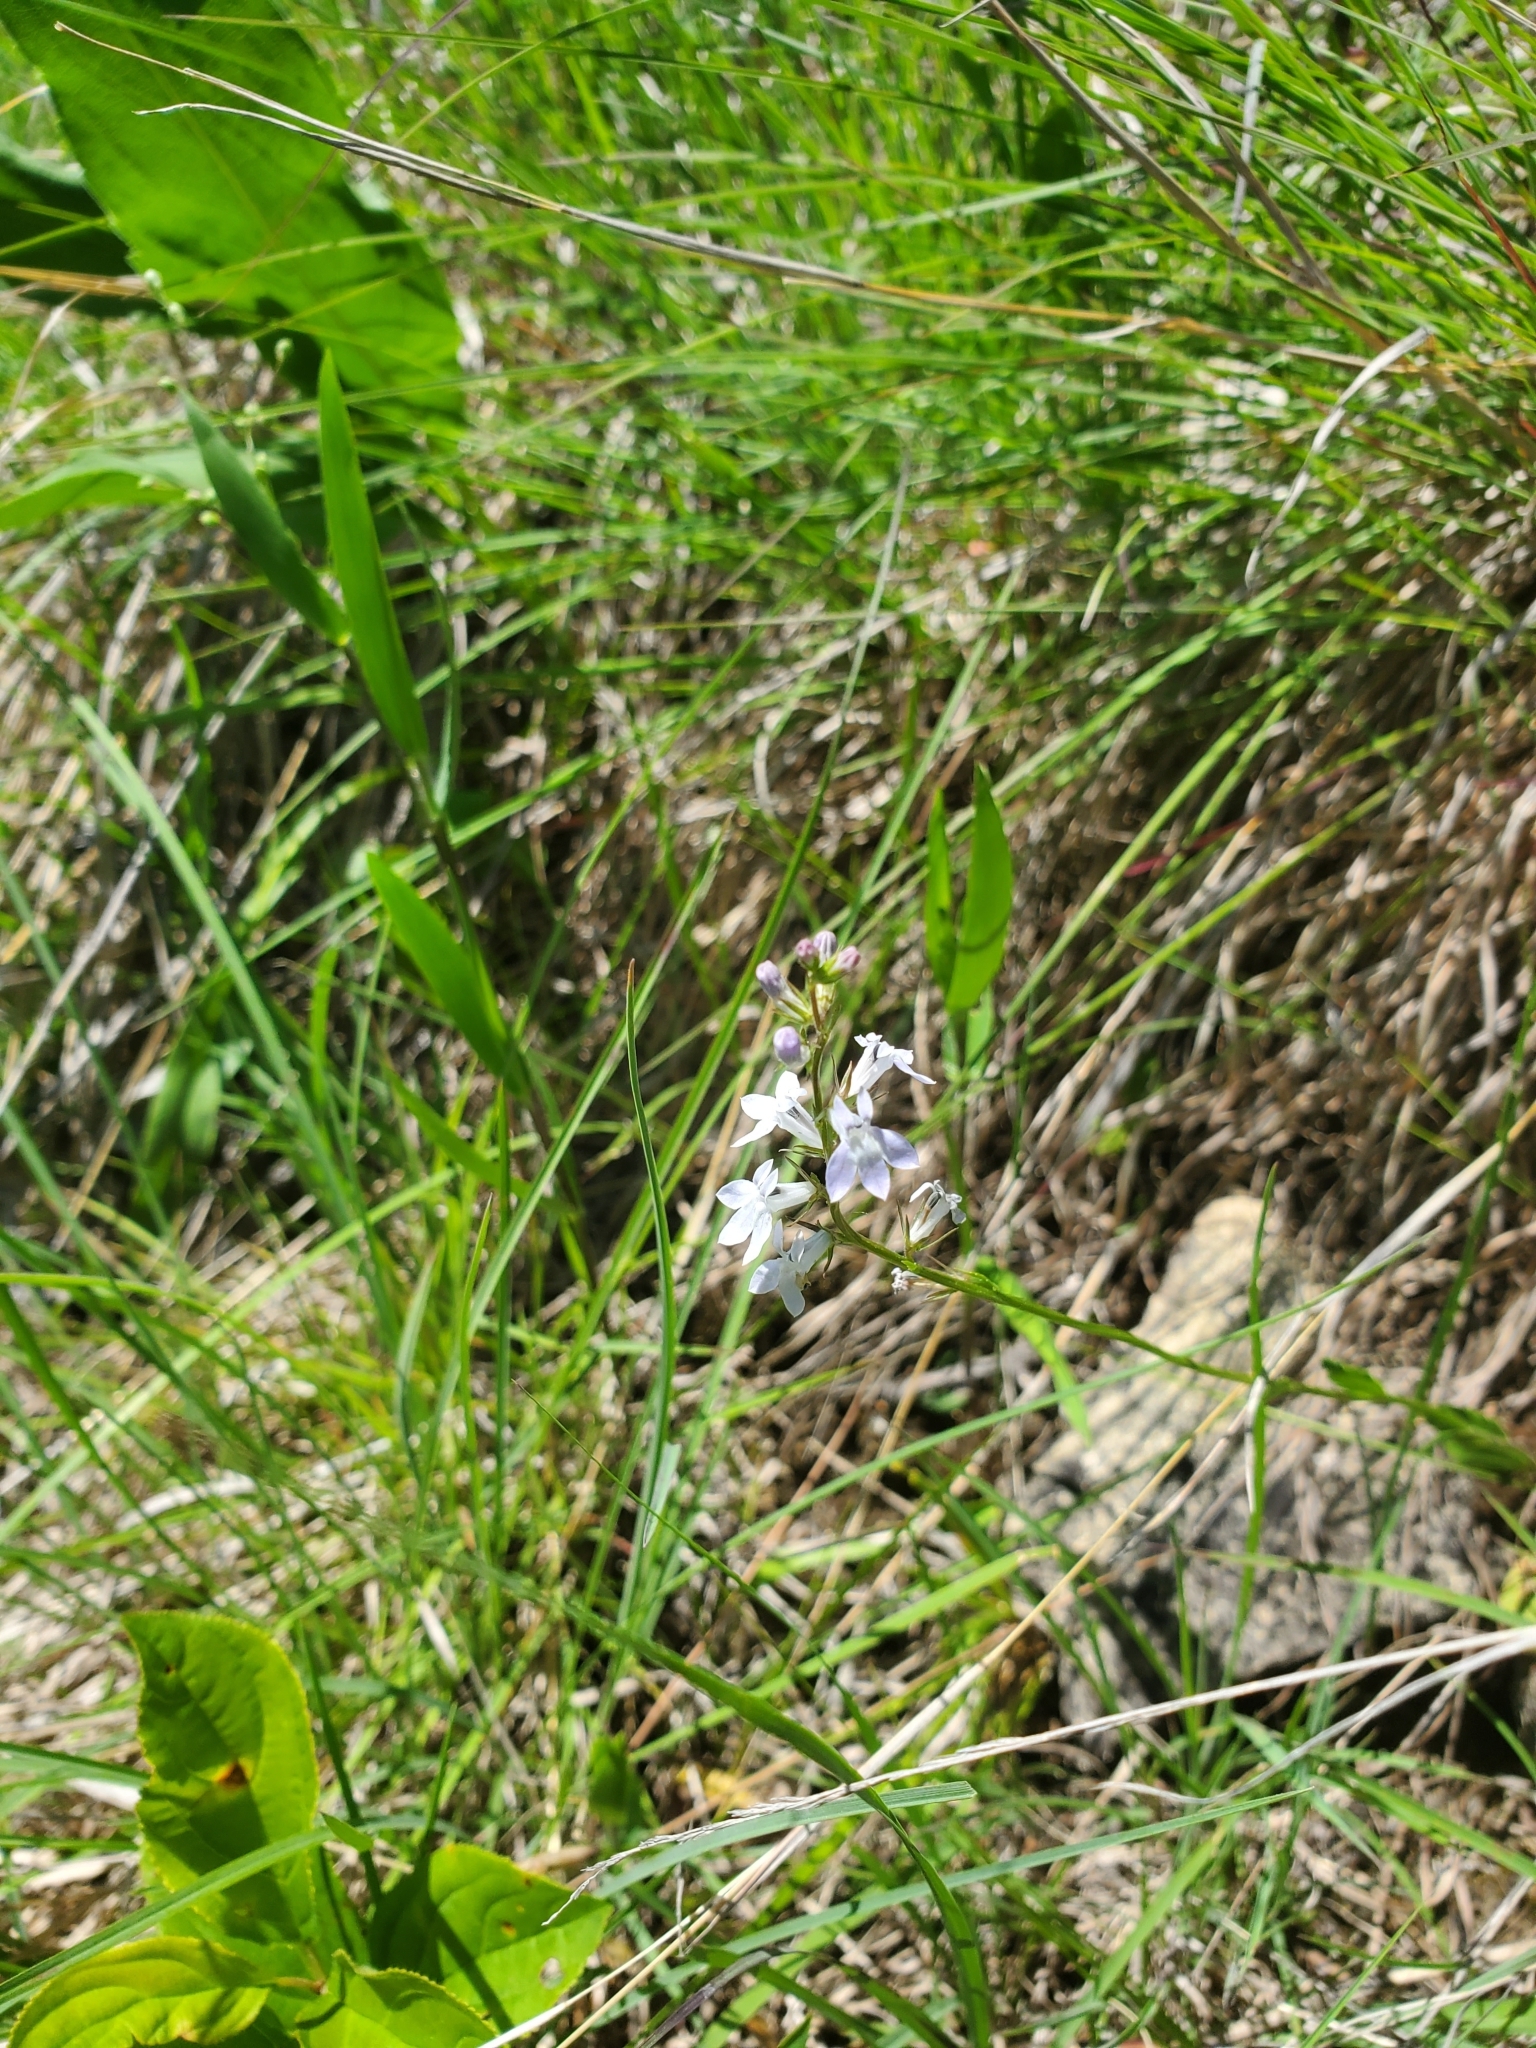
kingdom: Plantae
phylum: Tracheophyta
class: Magnoliopsida
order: Asterales
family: Campanulaceae
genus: Lobelia
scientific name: Lobelia spicata
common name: Pale-spike lobelia
